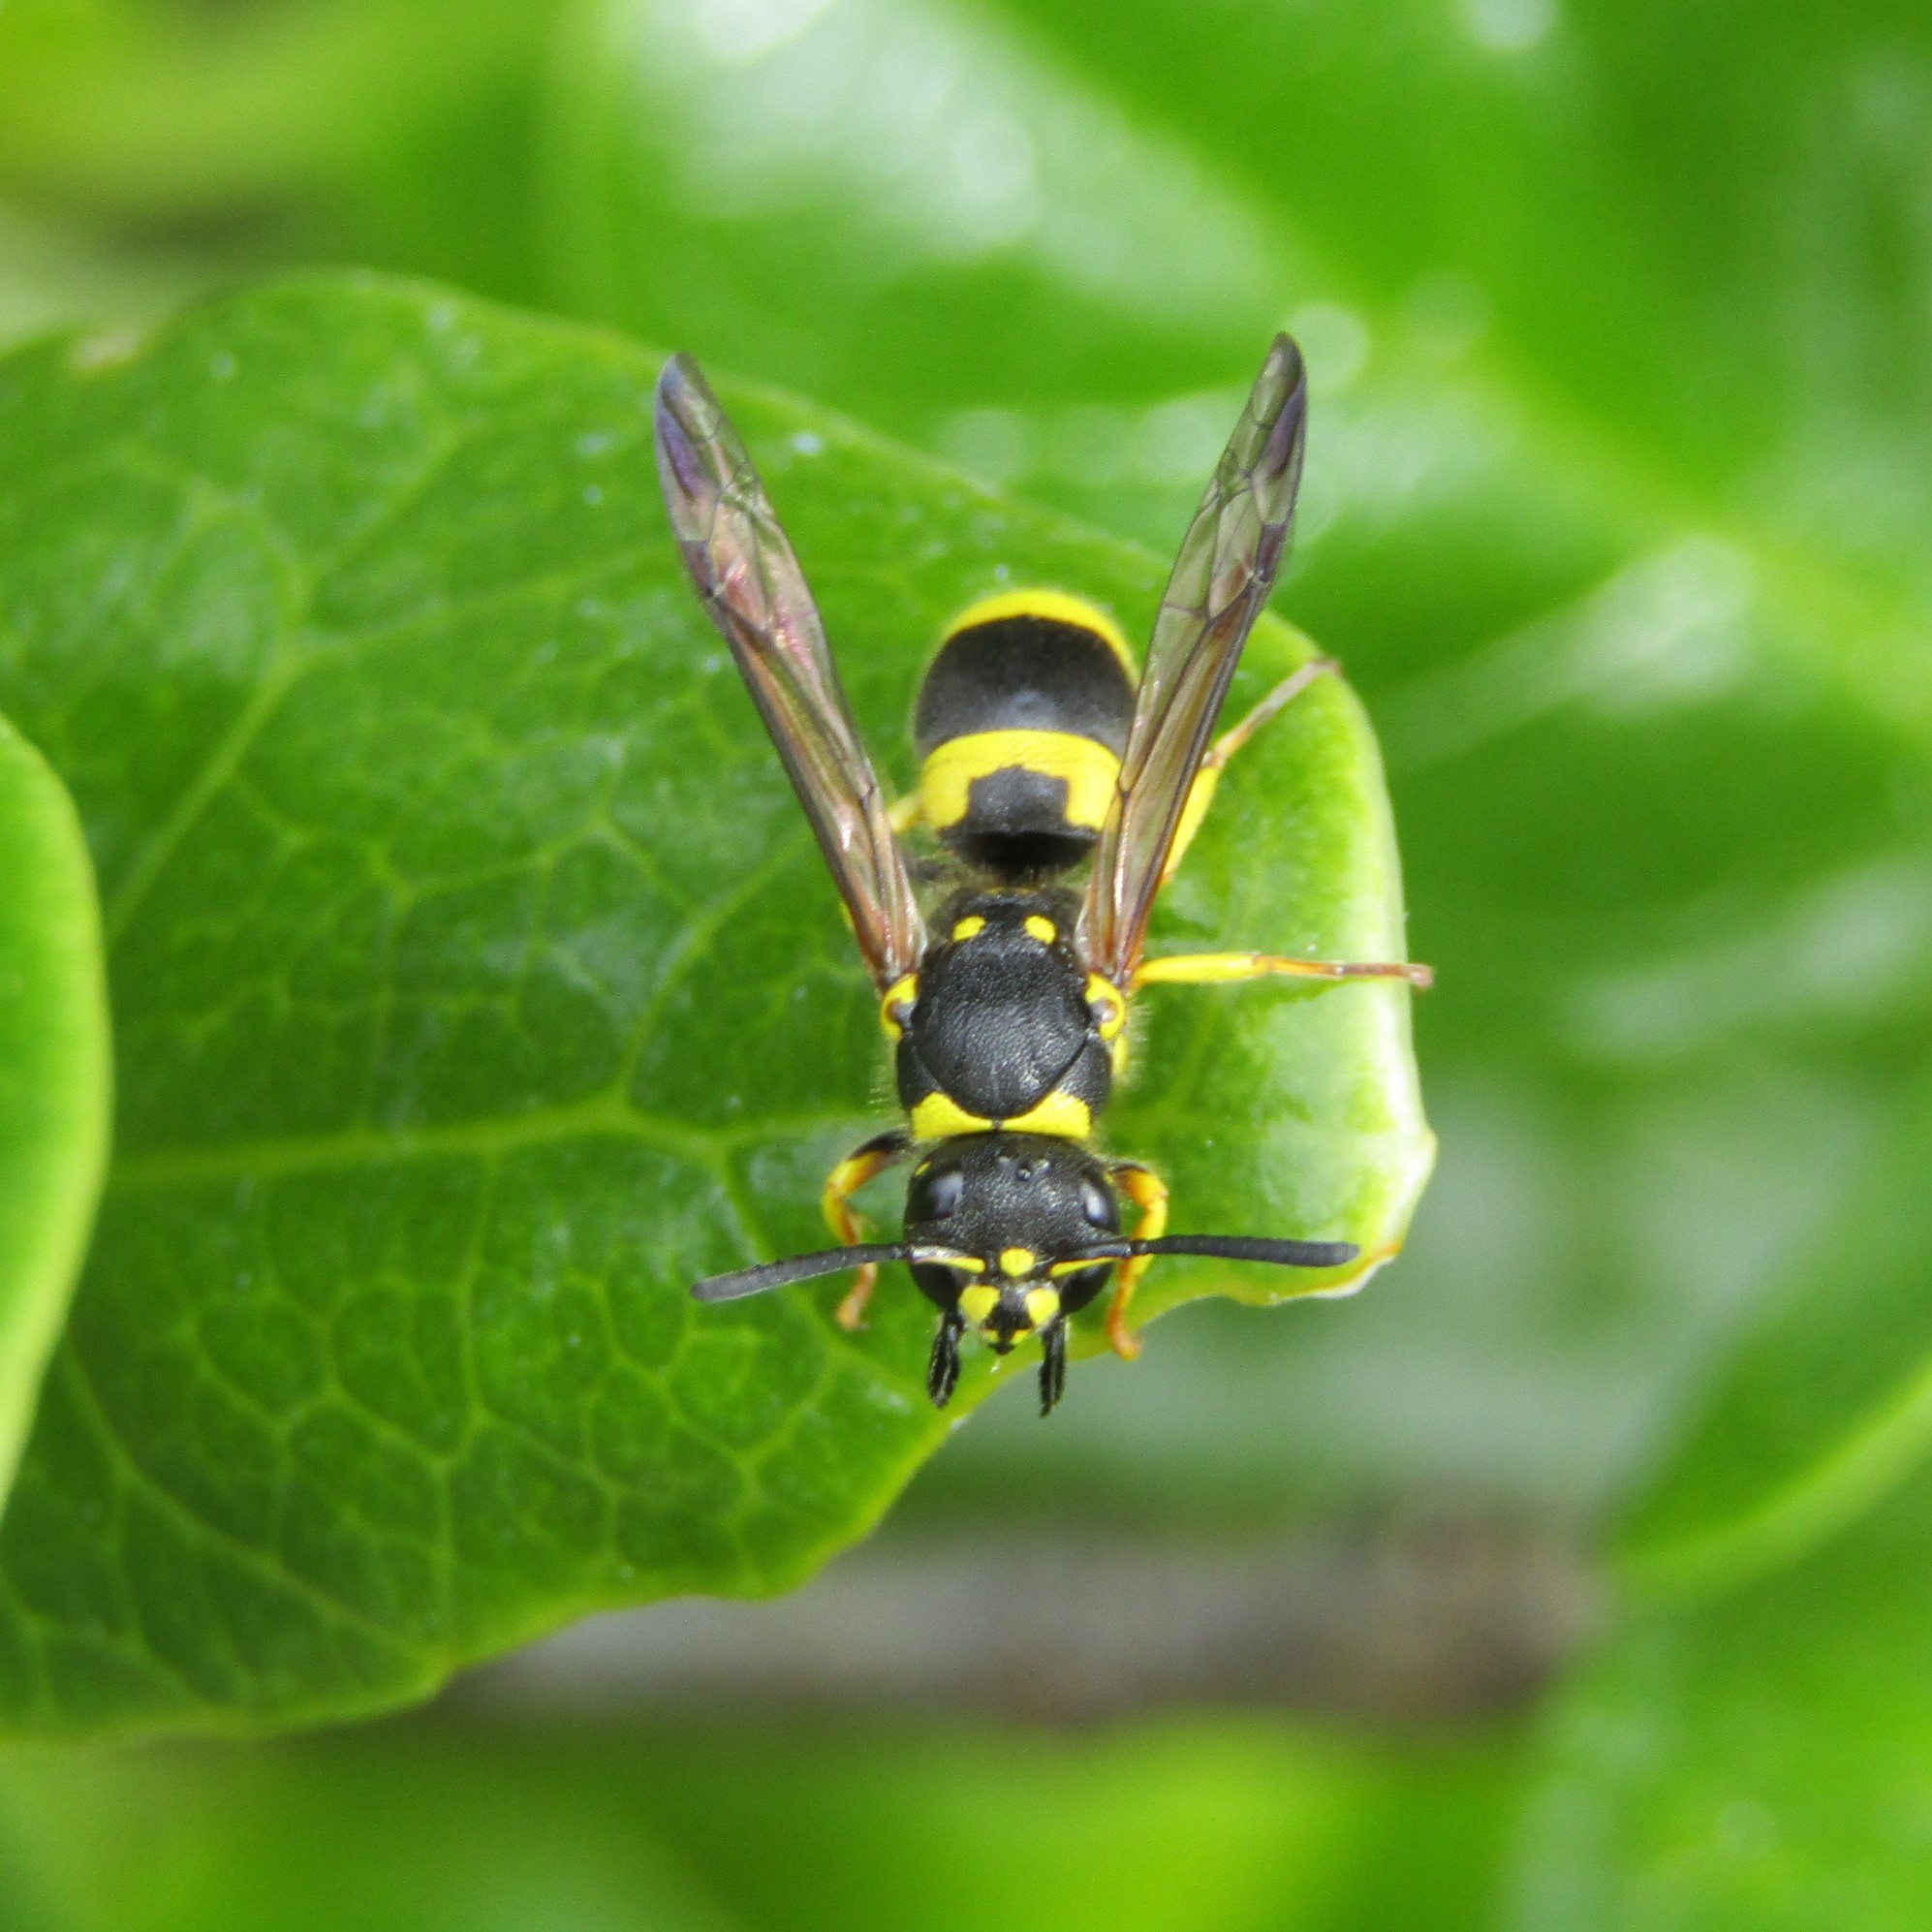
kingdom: Animalia
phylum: Arthropoda
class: Insecta
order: Hymenoptera
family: Vespidae
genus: Ancistrocerus
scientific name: Ancistrocerus gazella
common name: European tube wasp
